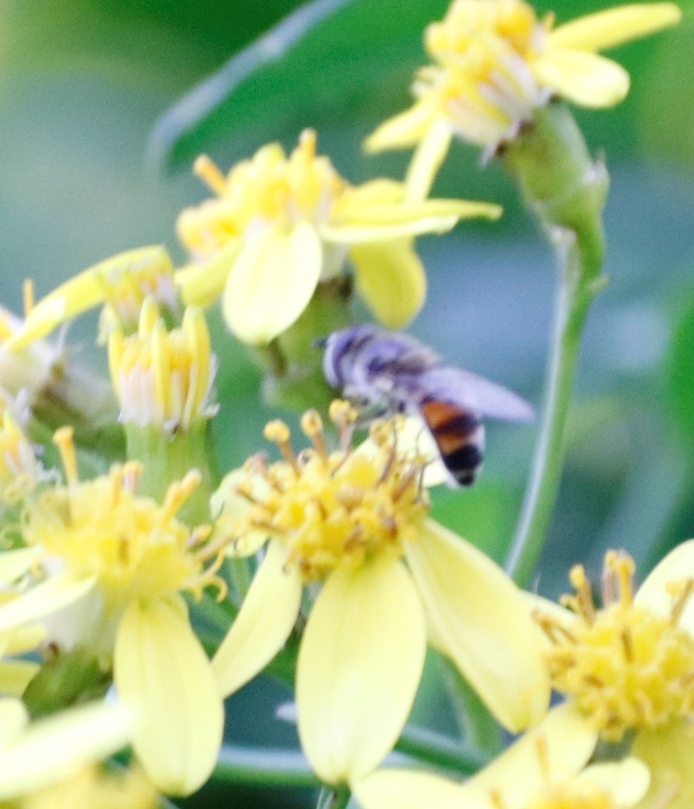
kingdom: Animalia
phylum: Arthropoda
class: Insecta
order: Diptera
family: Syrphidae
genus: Betasyrphus
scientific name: Betasyrphus adligatus
